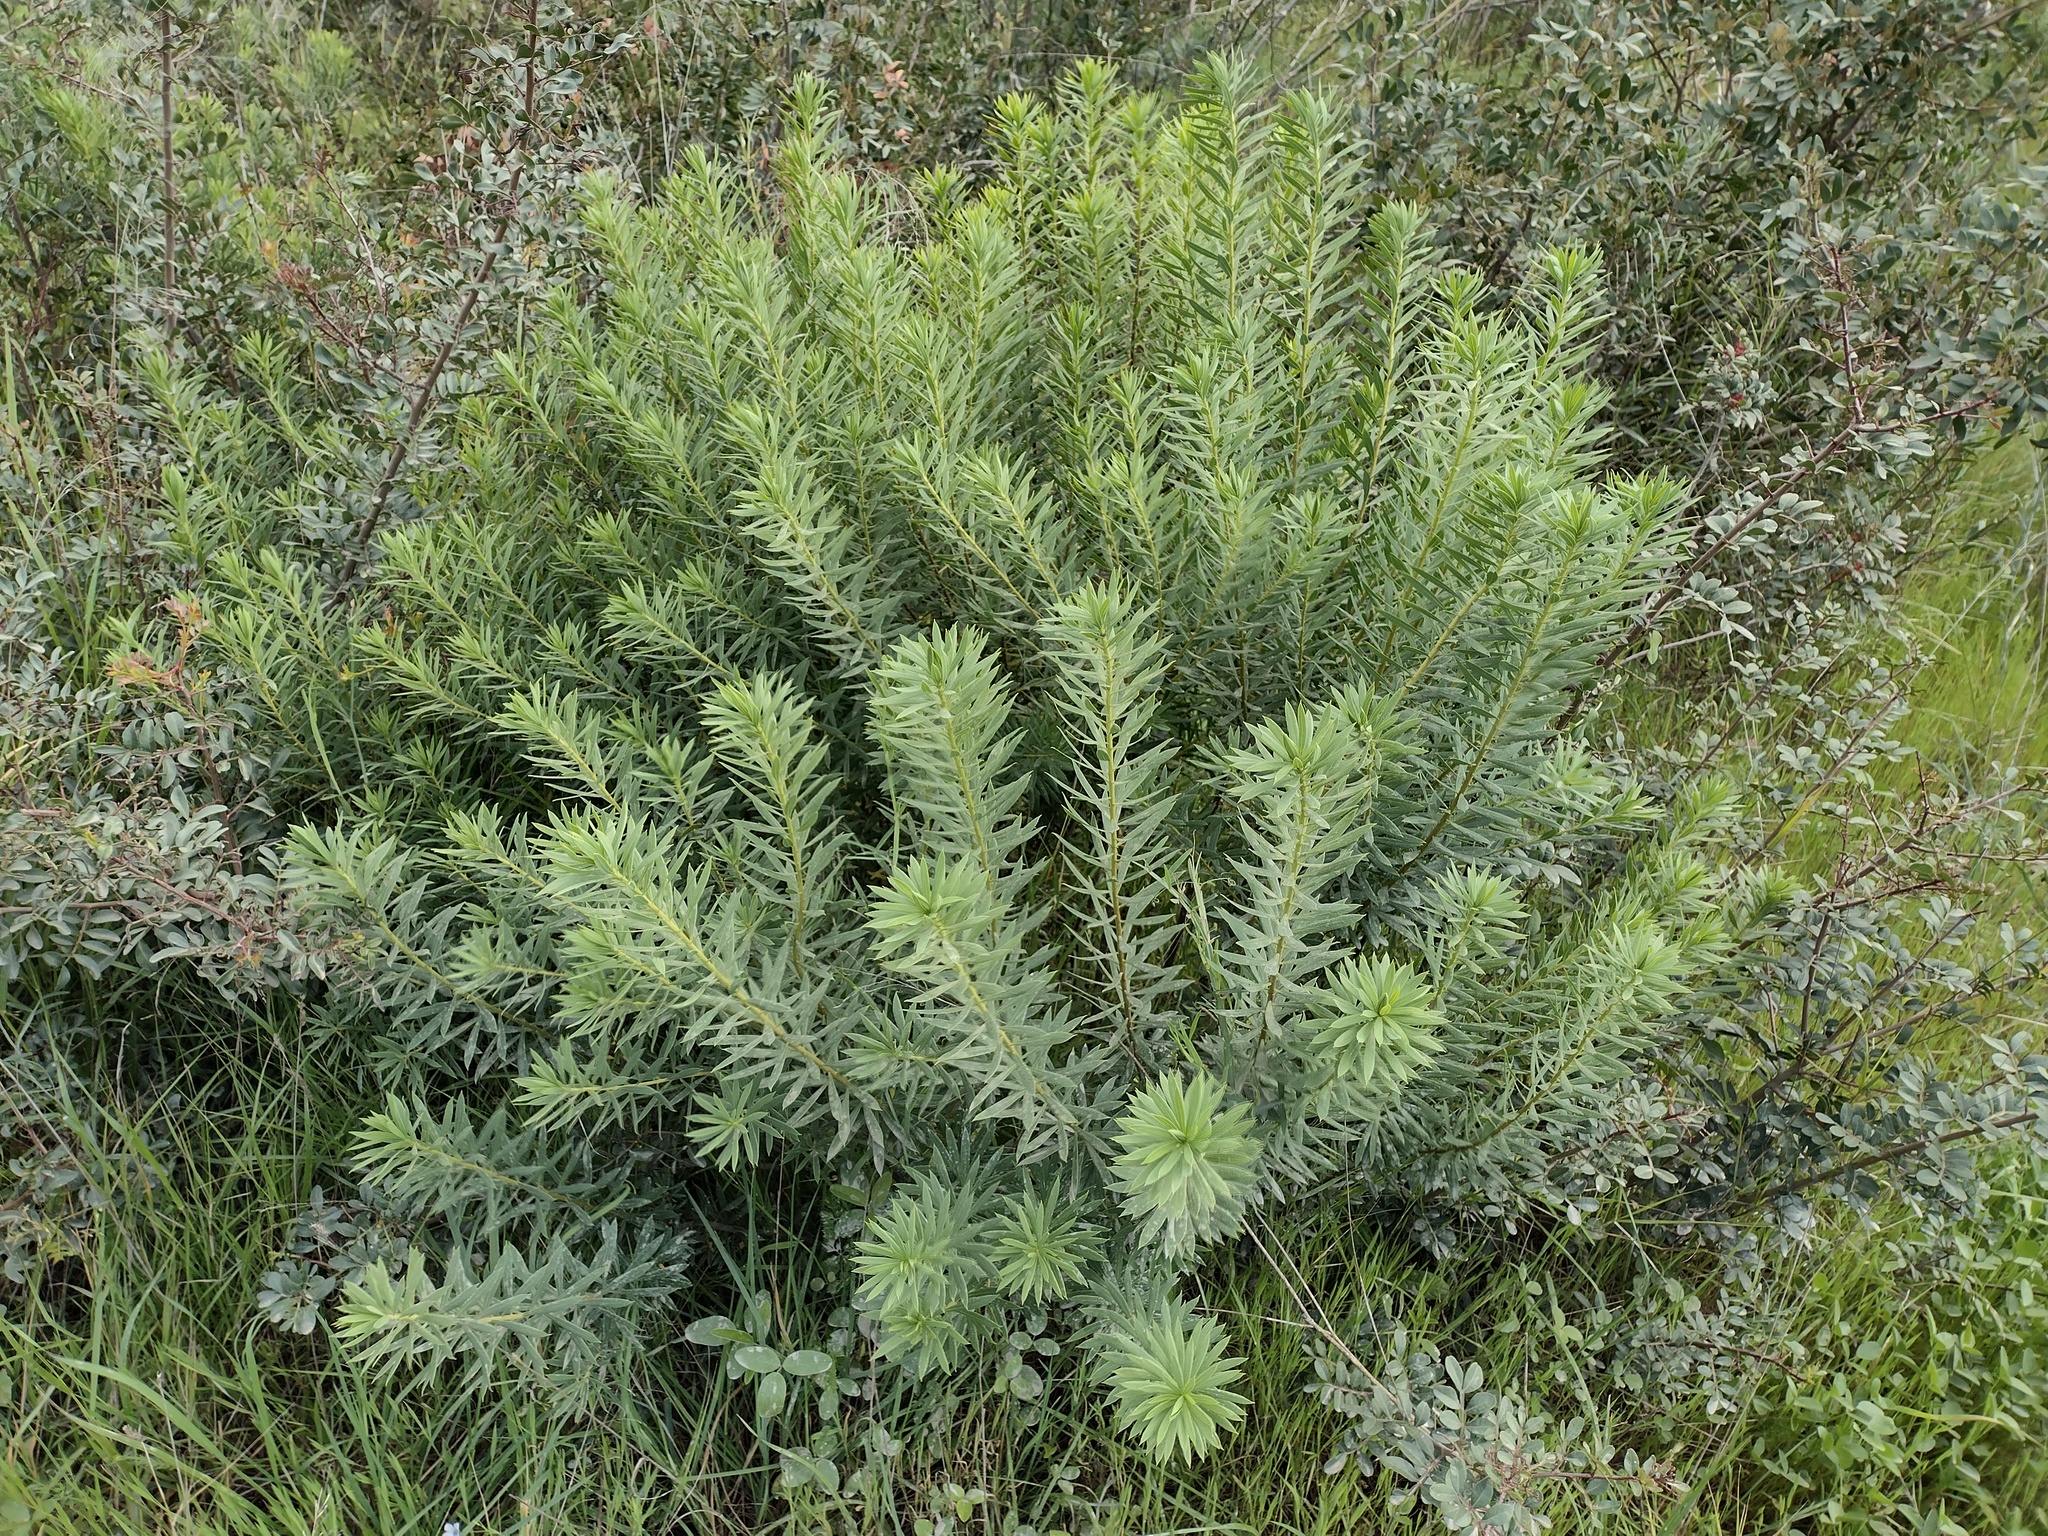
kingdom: Plantae
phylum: Tracheophyta
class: Magnoliopsida
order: Malvales
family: Thymelaeaceae
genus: Daphne
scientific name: Daphne gnidium
